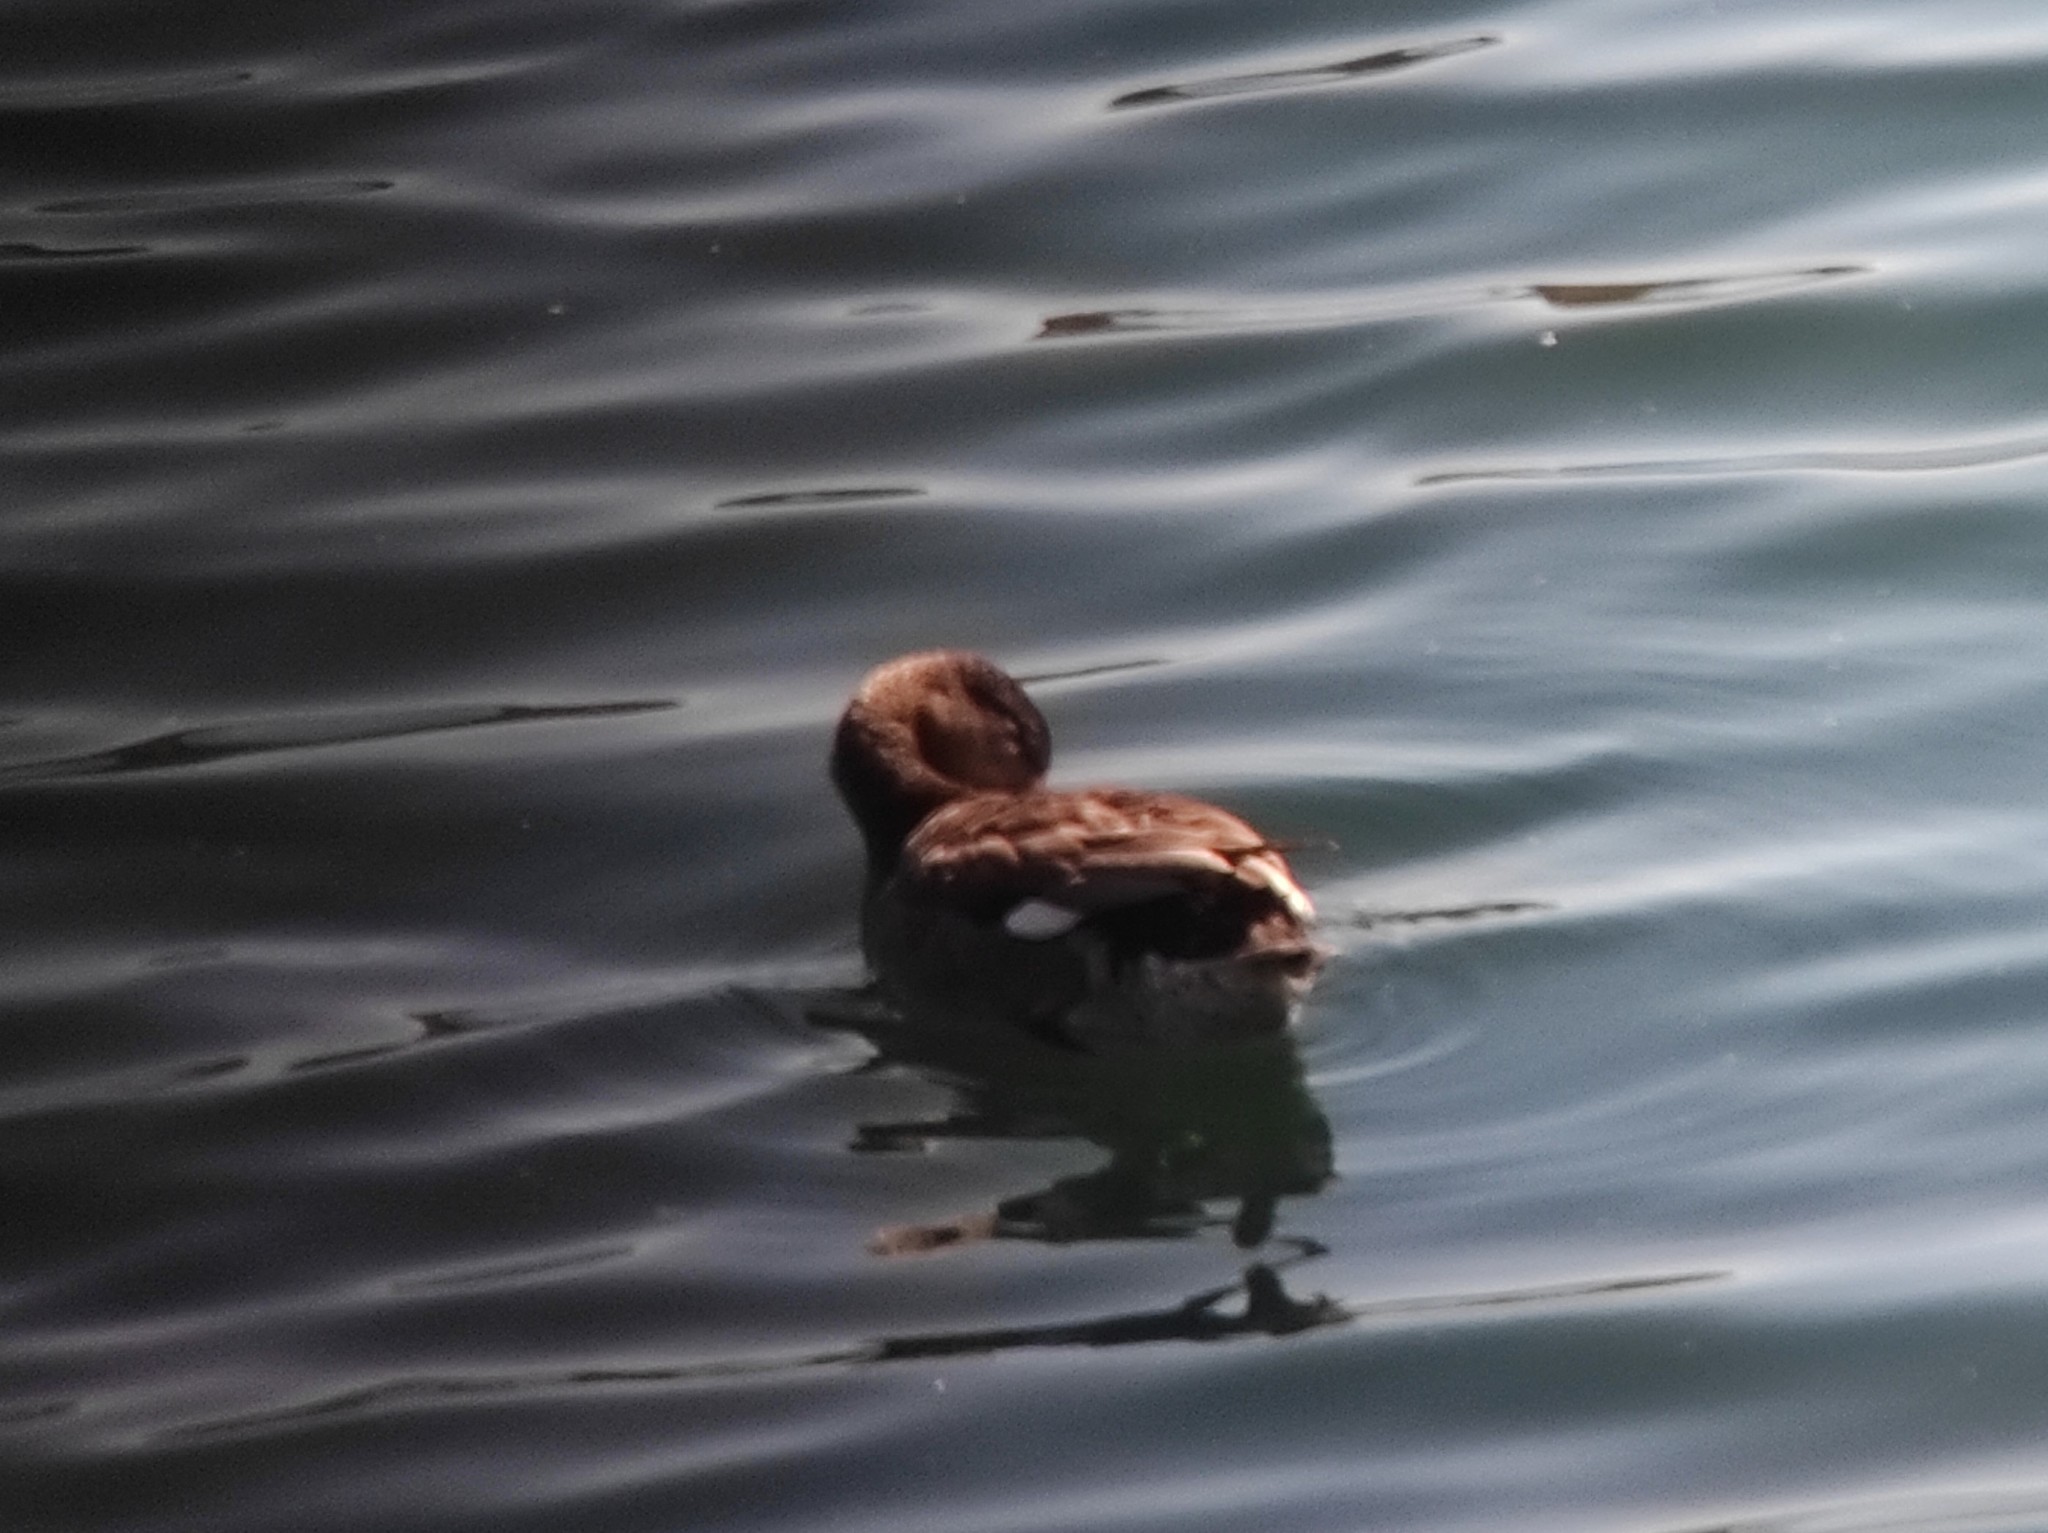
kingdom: Animalia
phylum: Chordata
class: Aves
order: Anseriformes
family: Anatidae
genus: Mareca
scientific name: Mareca strepera
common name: Gadwall
